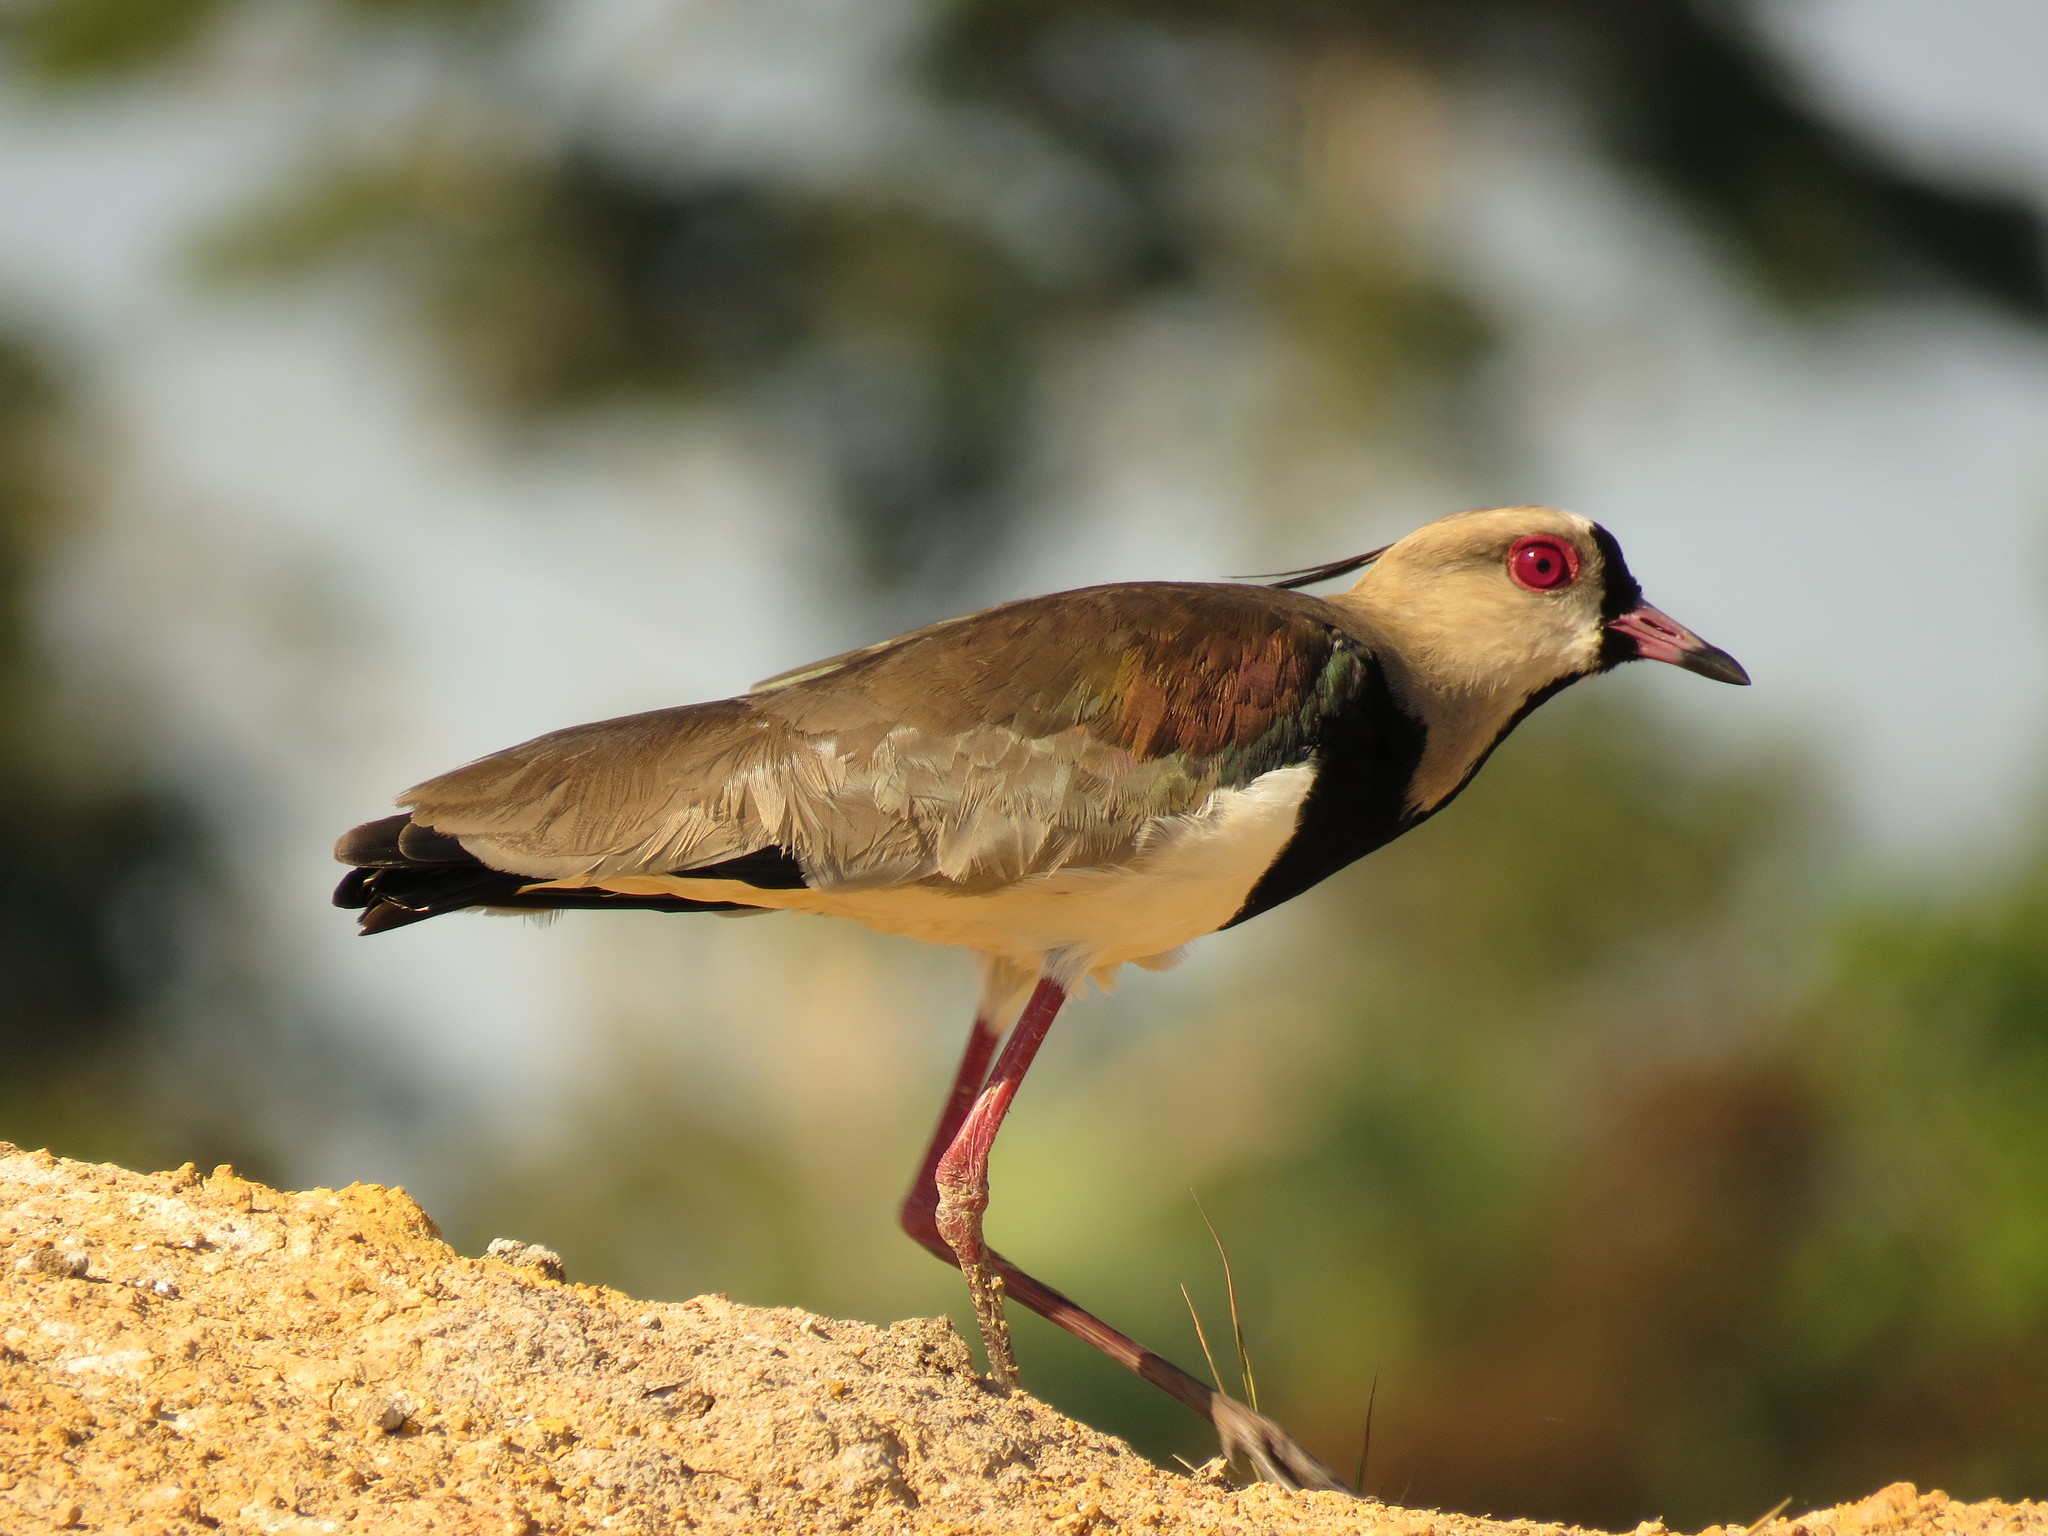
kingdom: Animalia
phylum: Chordata
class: Aves
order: Charadriiformes
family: Charadriidae
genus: Vanellus
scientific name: Vanellus chilensis
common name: Southern lapwing
